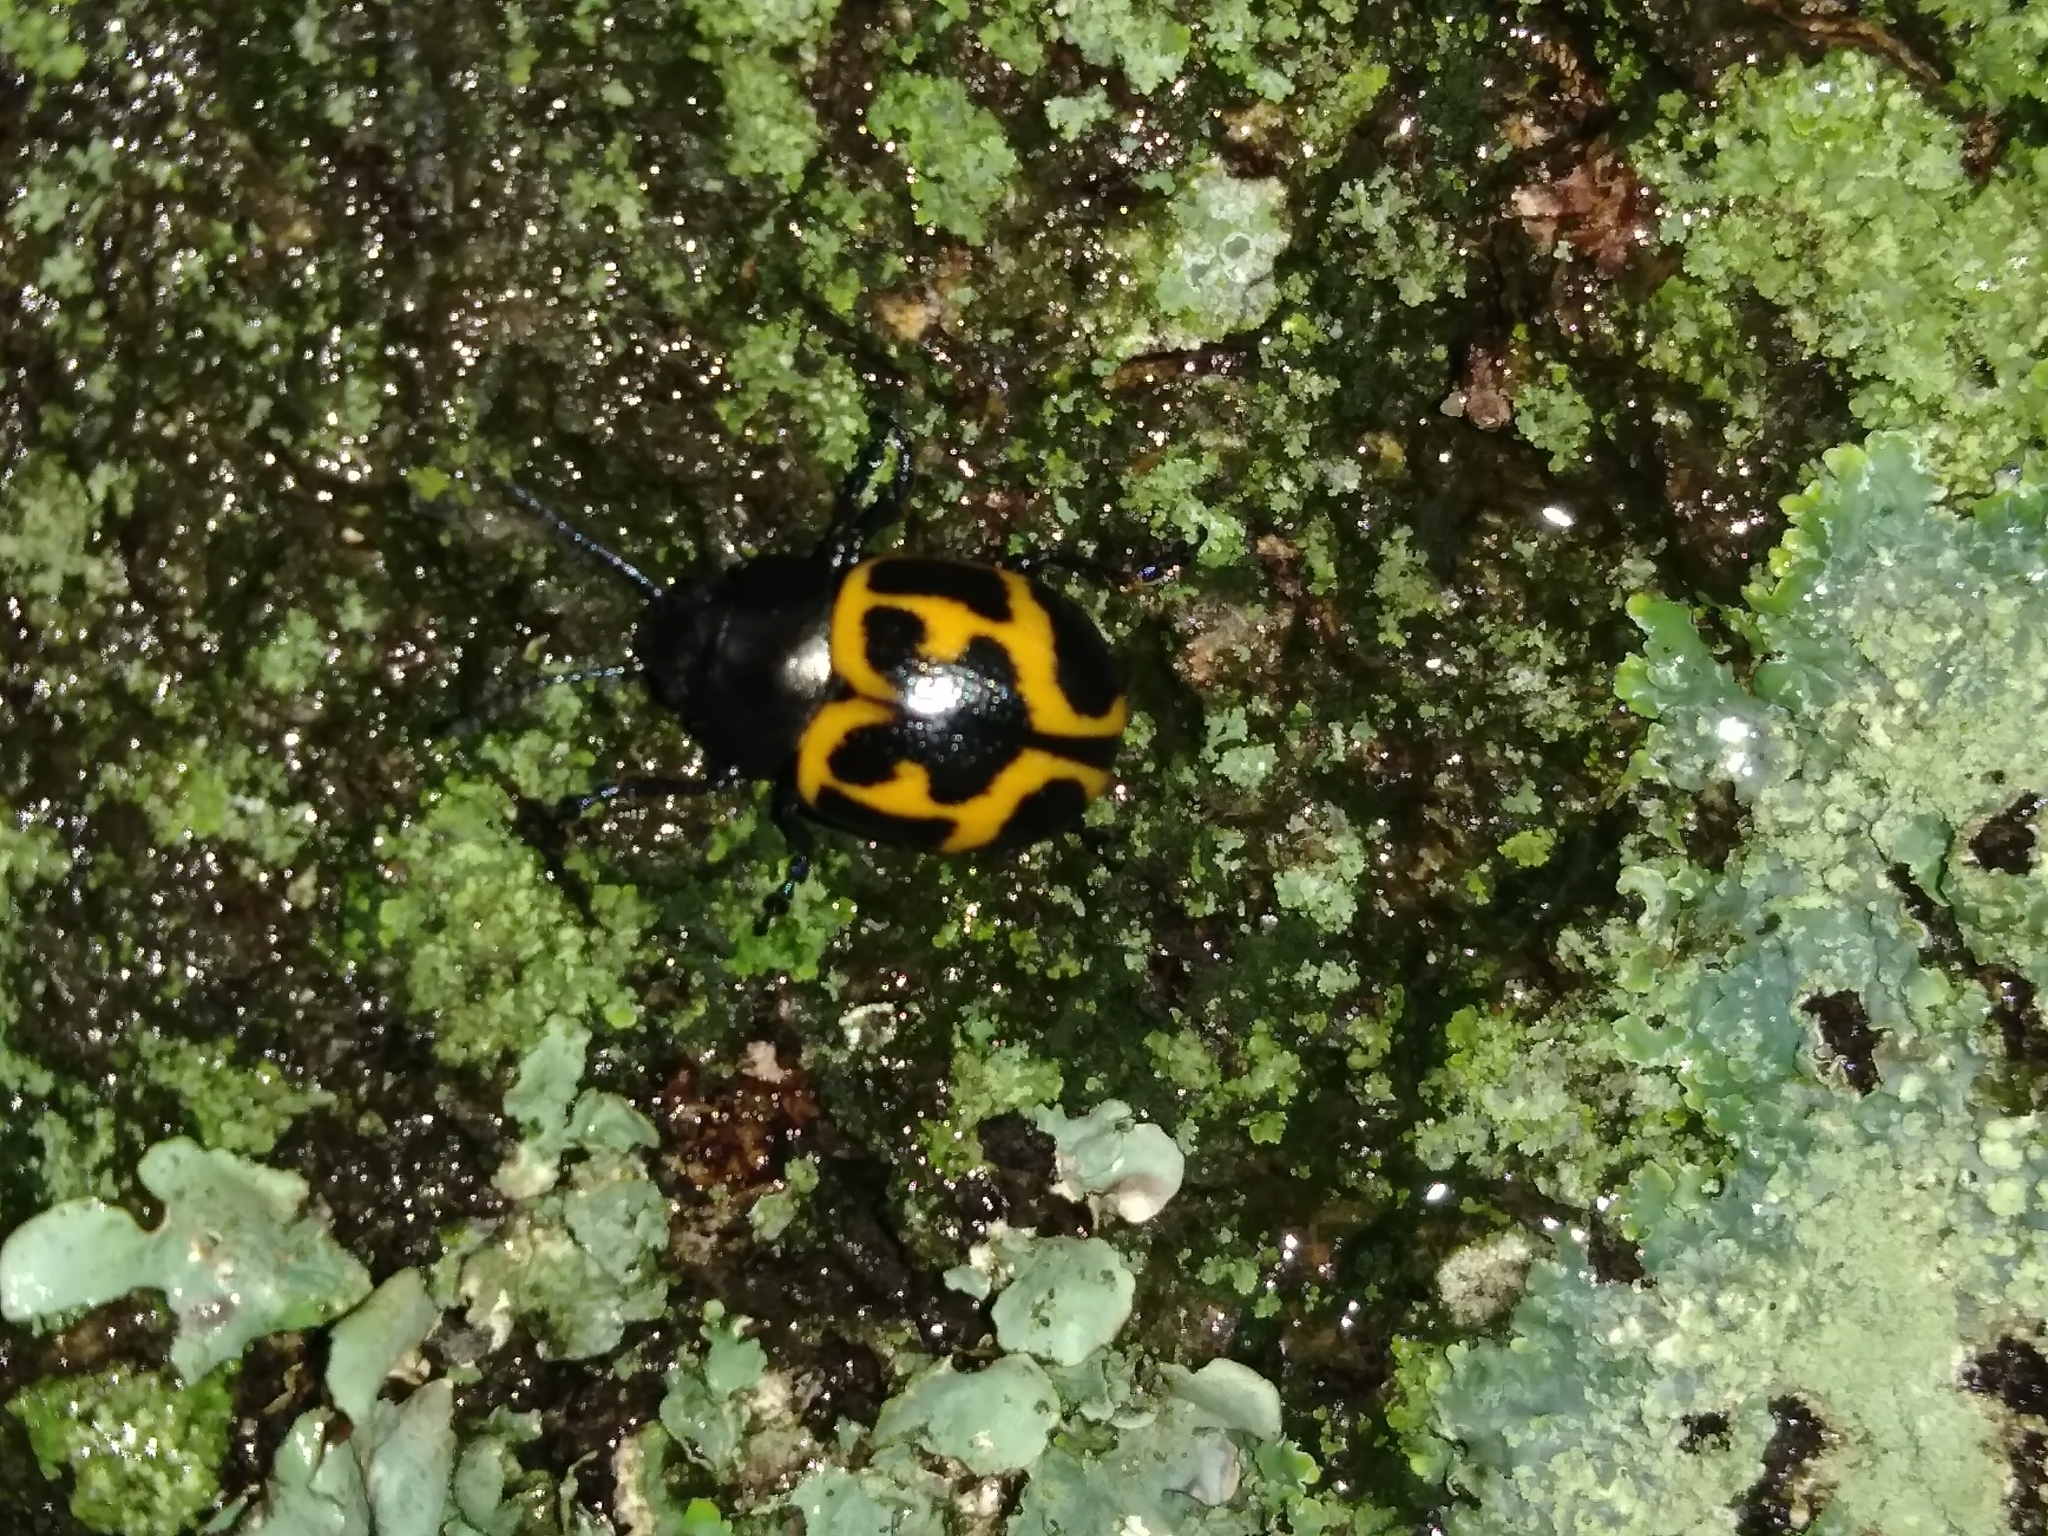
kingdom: Animalia
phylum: Arthropoda
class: Insecta
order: Coleoptera
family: Chrysomelidae
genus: Labidomera
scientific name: Labidomera clivicollis
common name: Swamp milkweed leaf beetle
